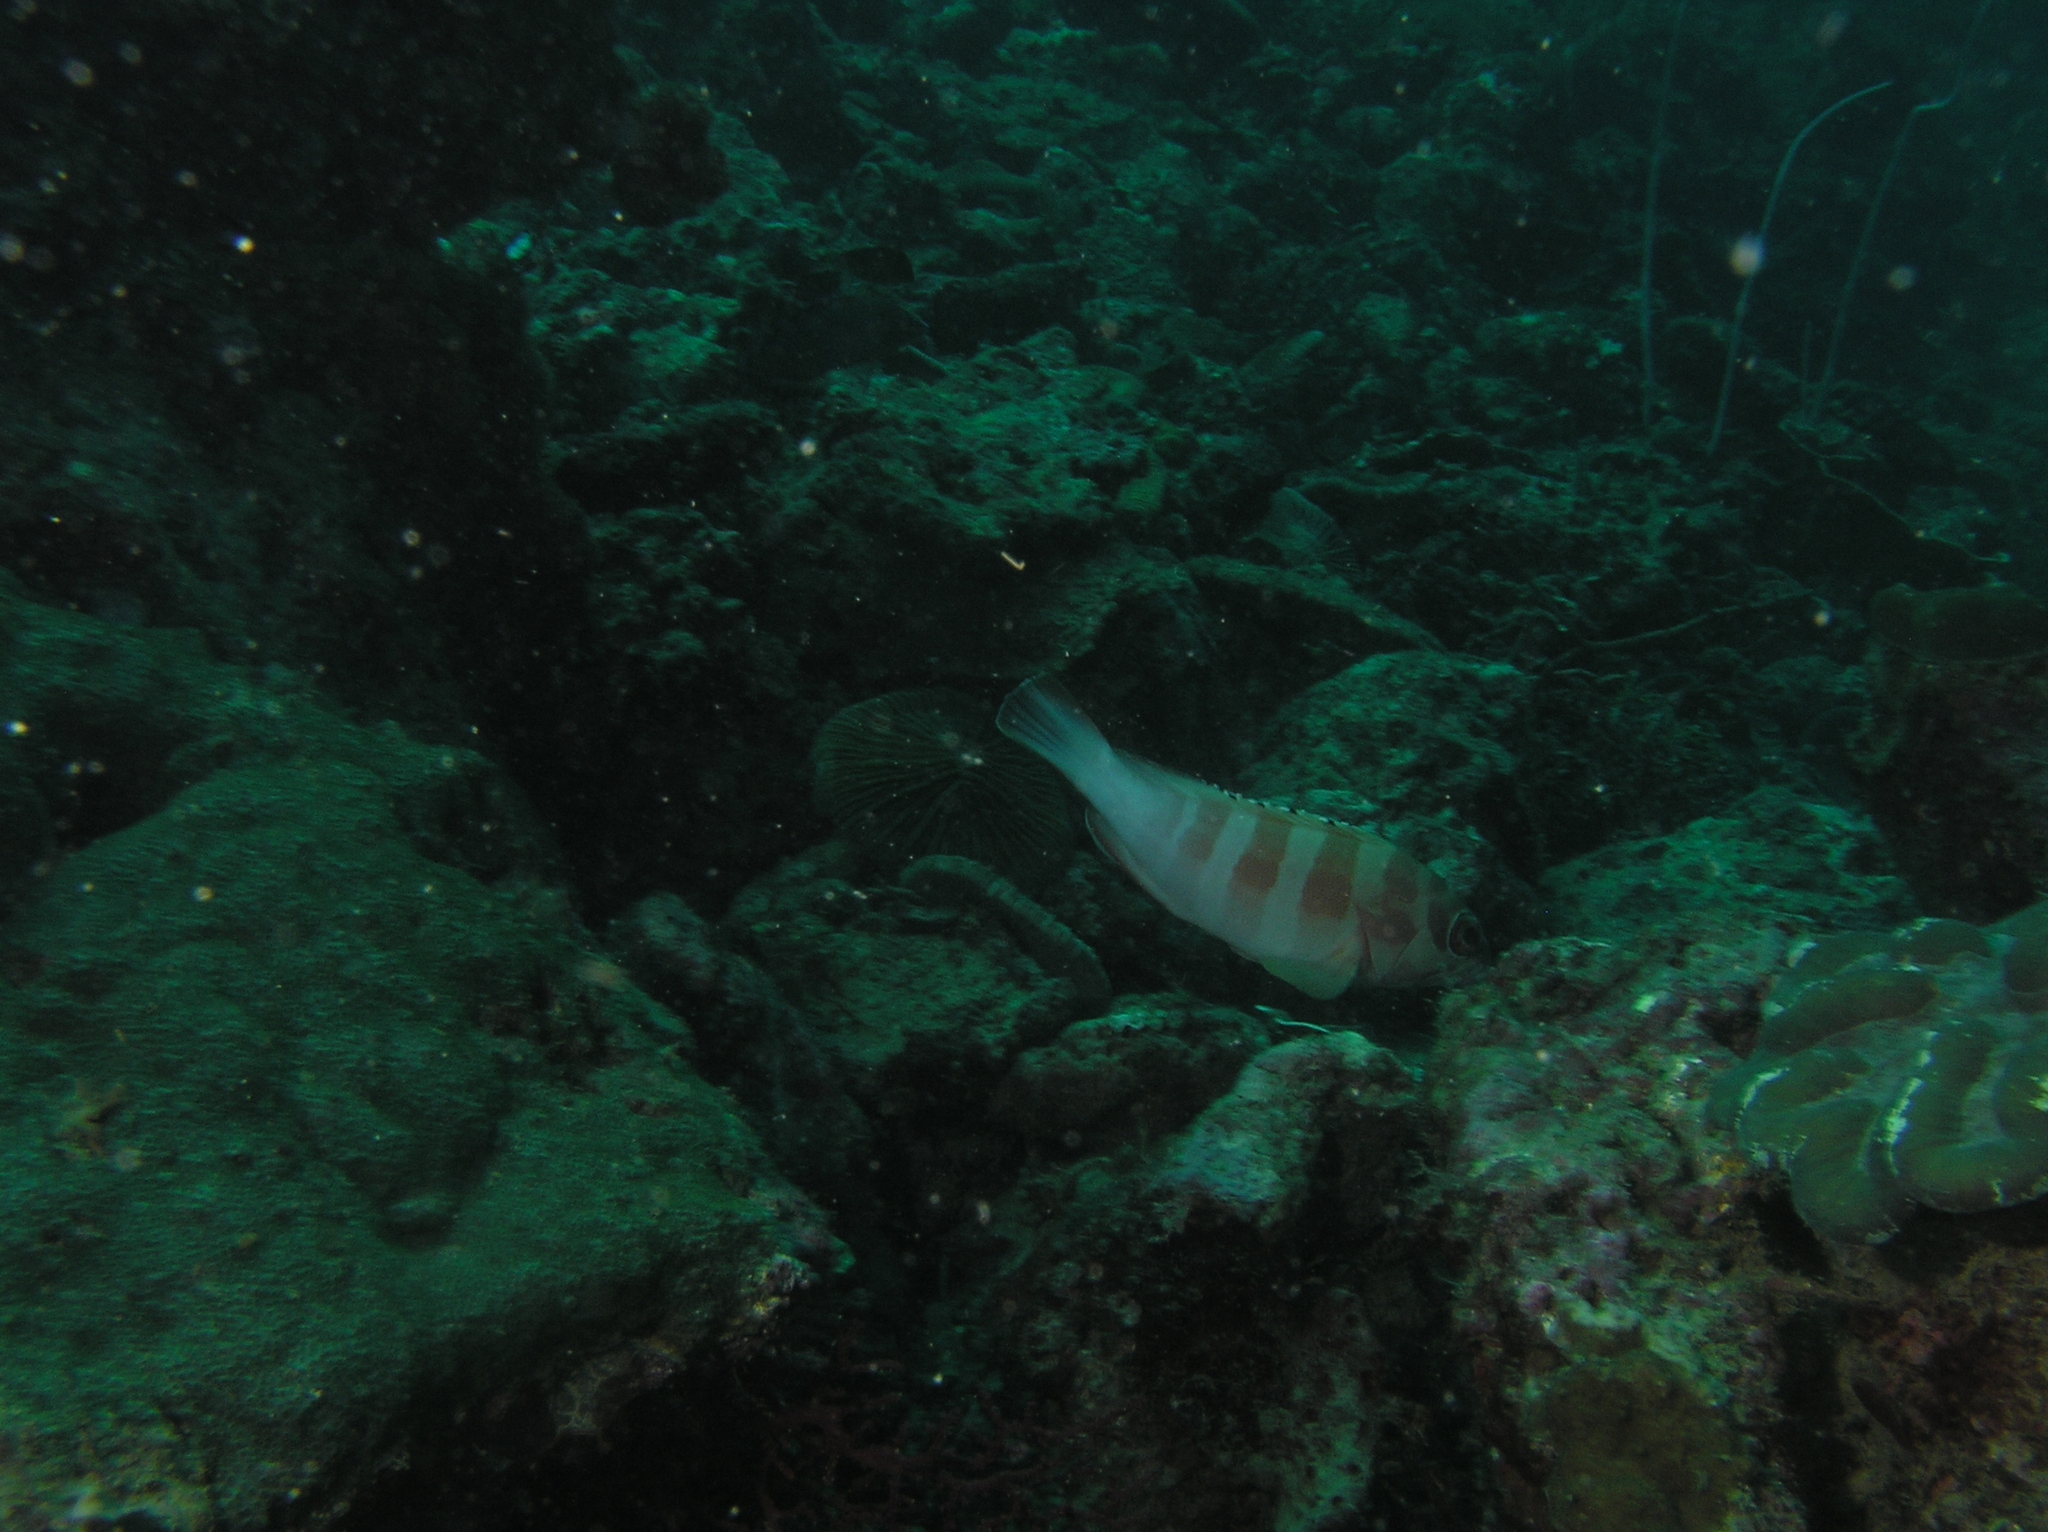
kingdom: Animalia
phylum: Chordata
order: Perciformes
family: Serranidae
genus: Epinephelus
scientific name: Epinephelus fasciatus
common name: Blacktip grouper
